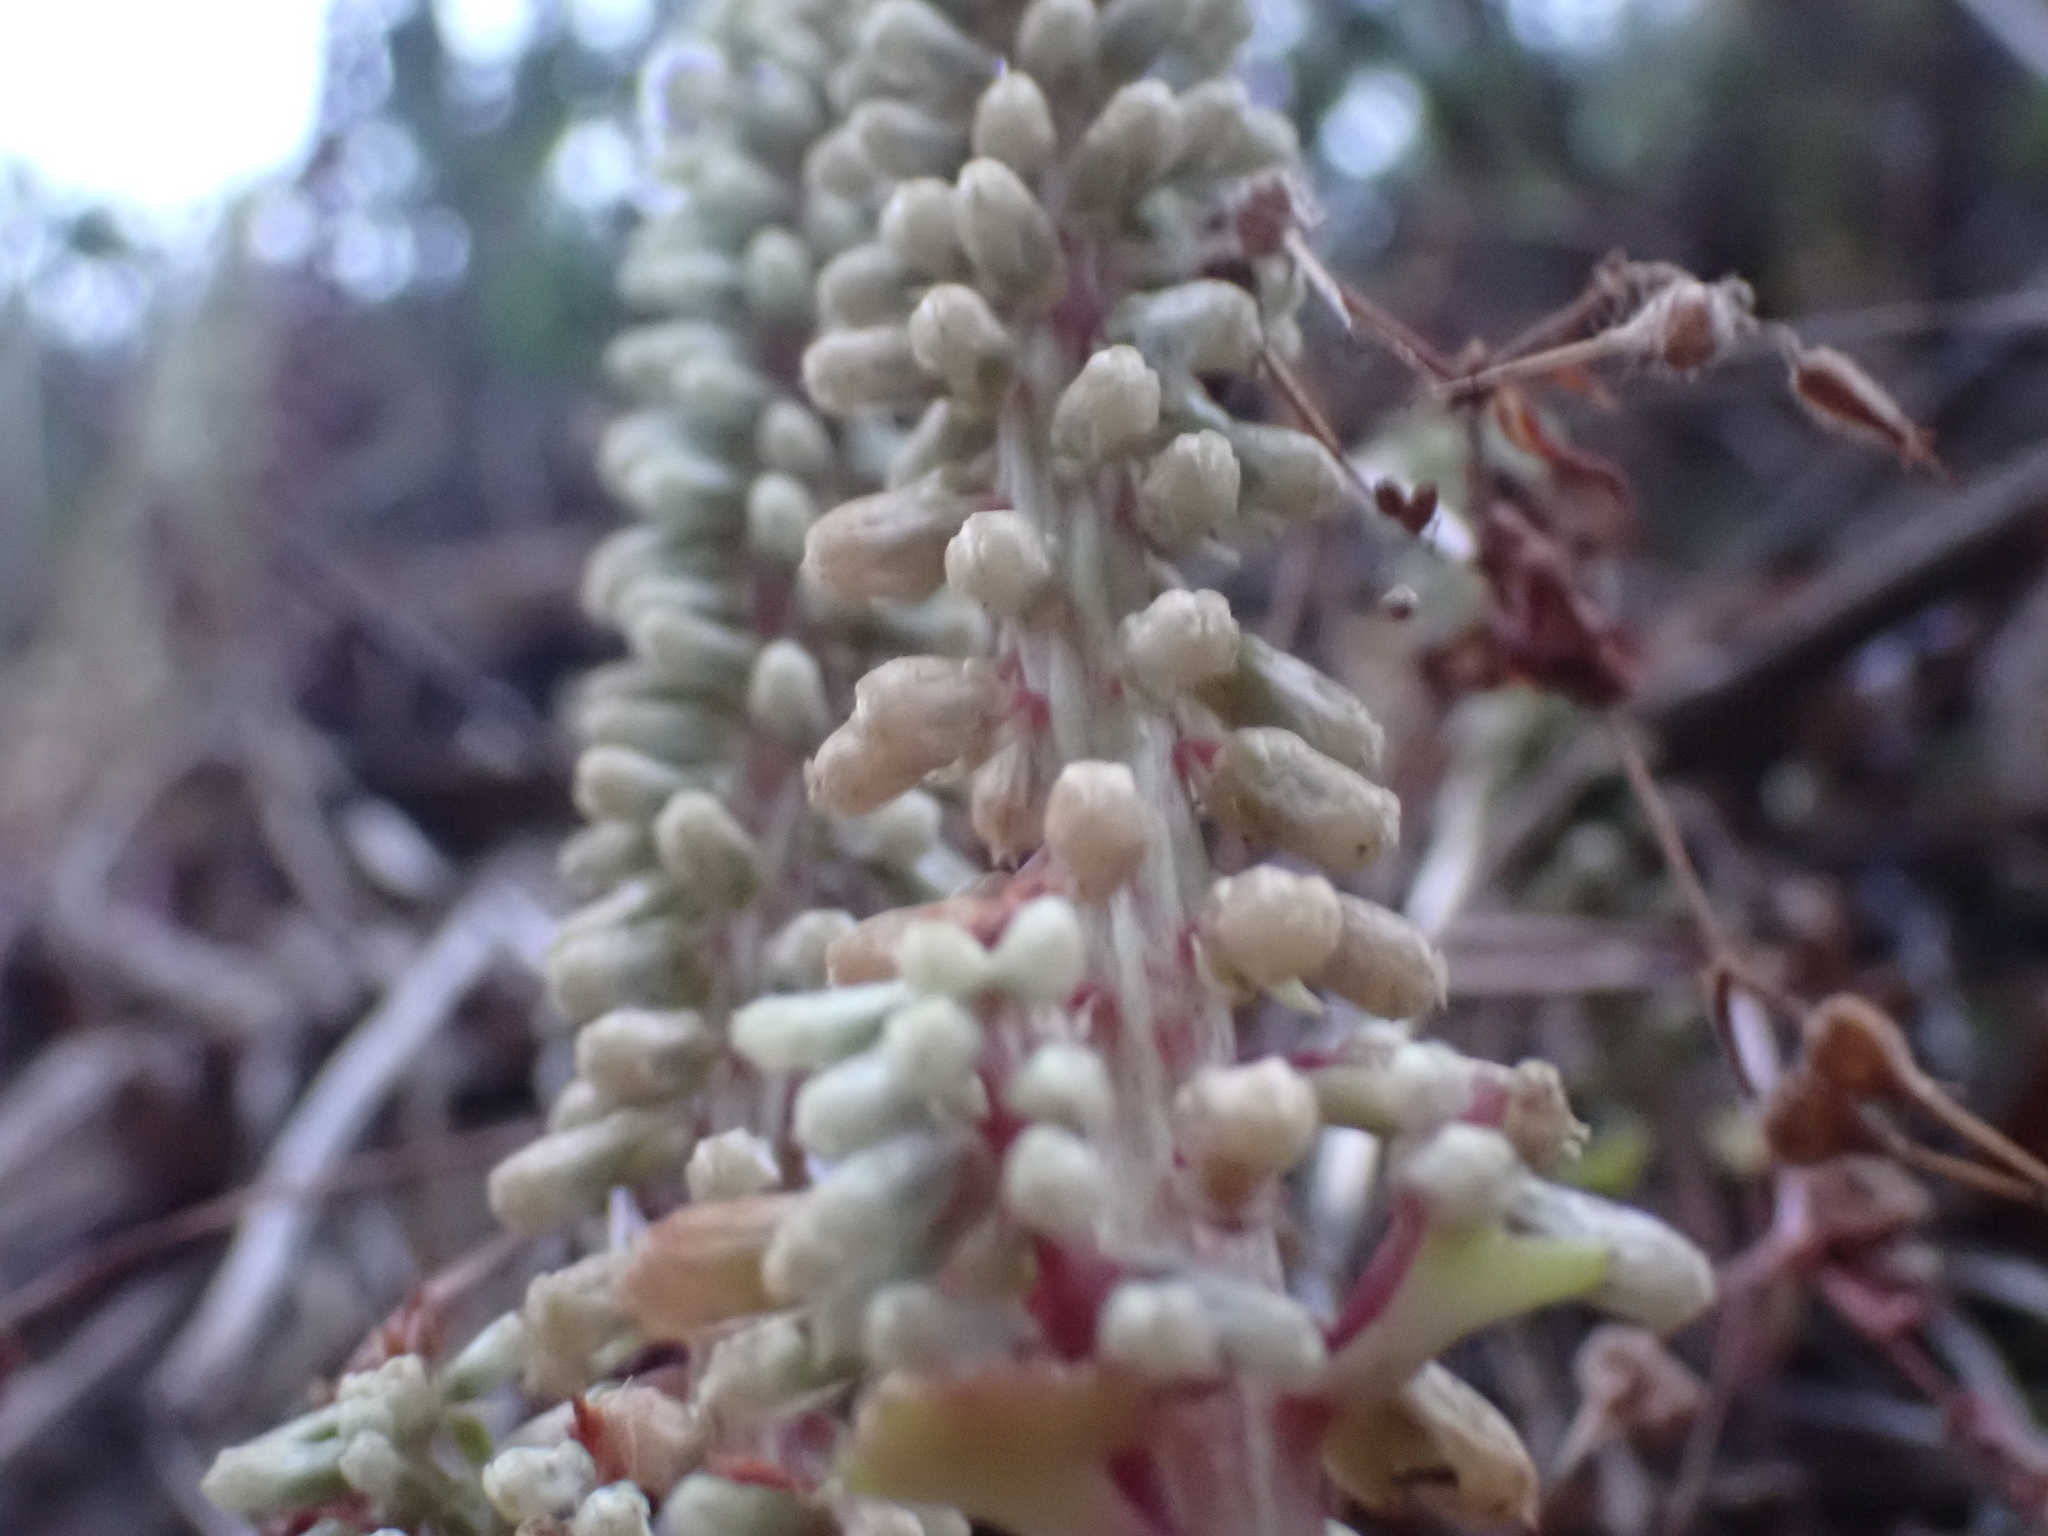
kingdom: Plantae
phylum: Tracheophyta
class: Magnoliopsida
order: Saxifragales
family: Crassulaceae
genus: Umbilicus
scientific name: Umbilicus rupestris
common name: Navelwort
